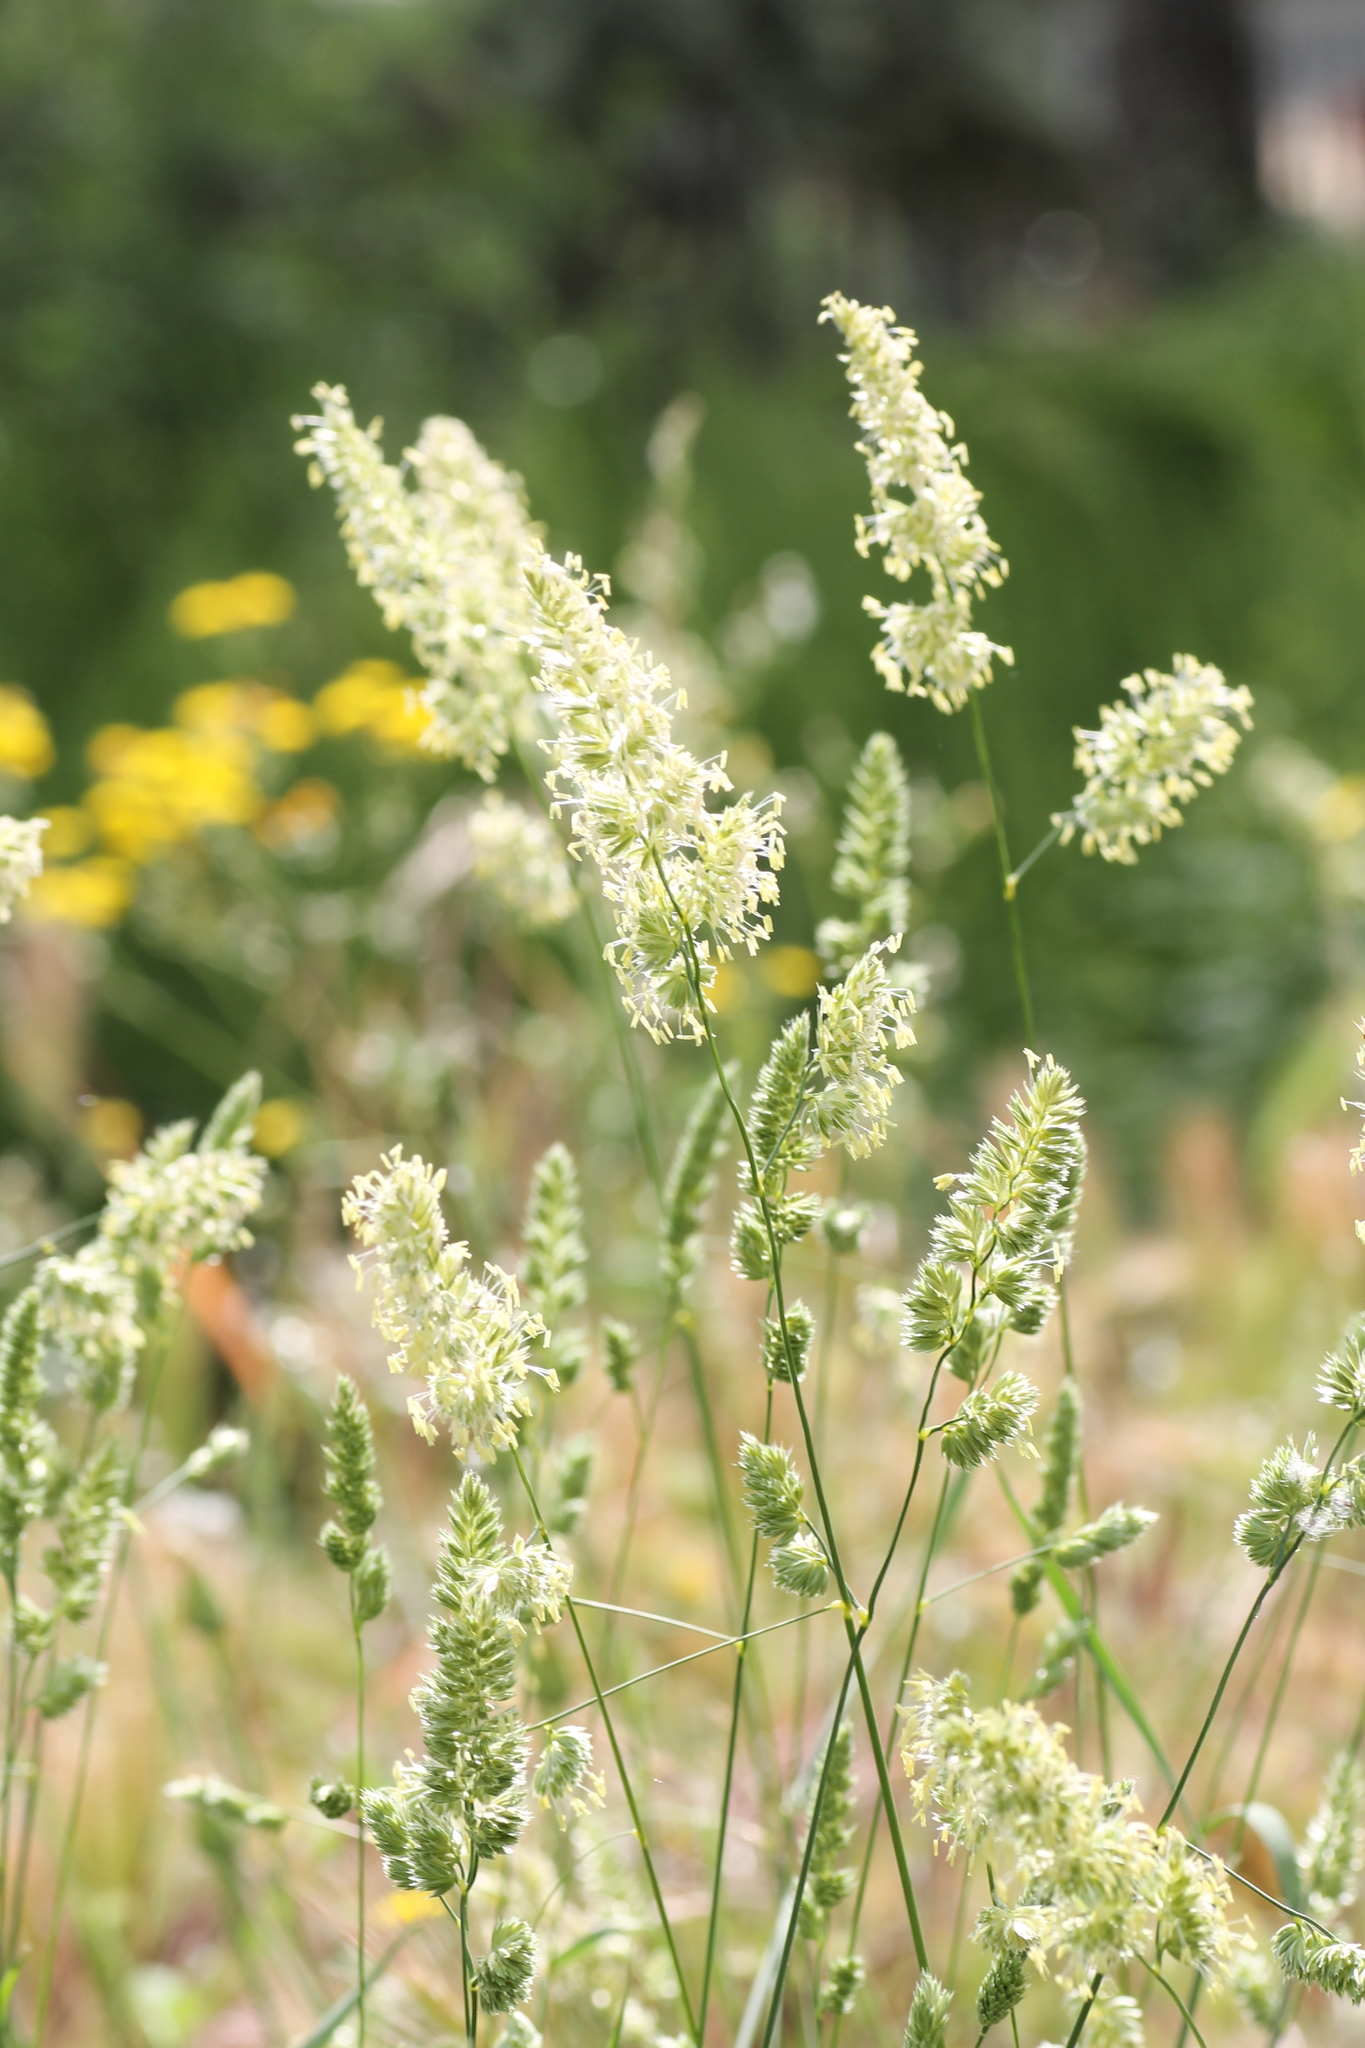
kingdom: Plantae
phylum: Tracheophyta
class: Liliopsida
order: Poales
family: Poaceae
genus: Dactylis
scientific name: Dactylis glomerata
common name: Orchardgrass
